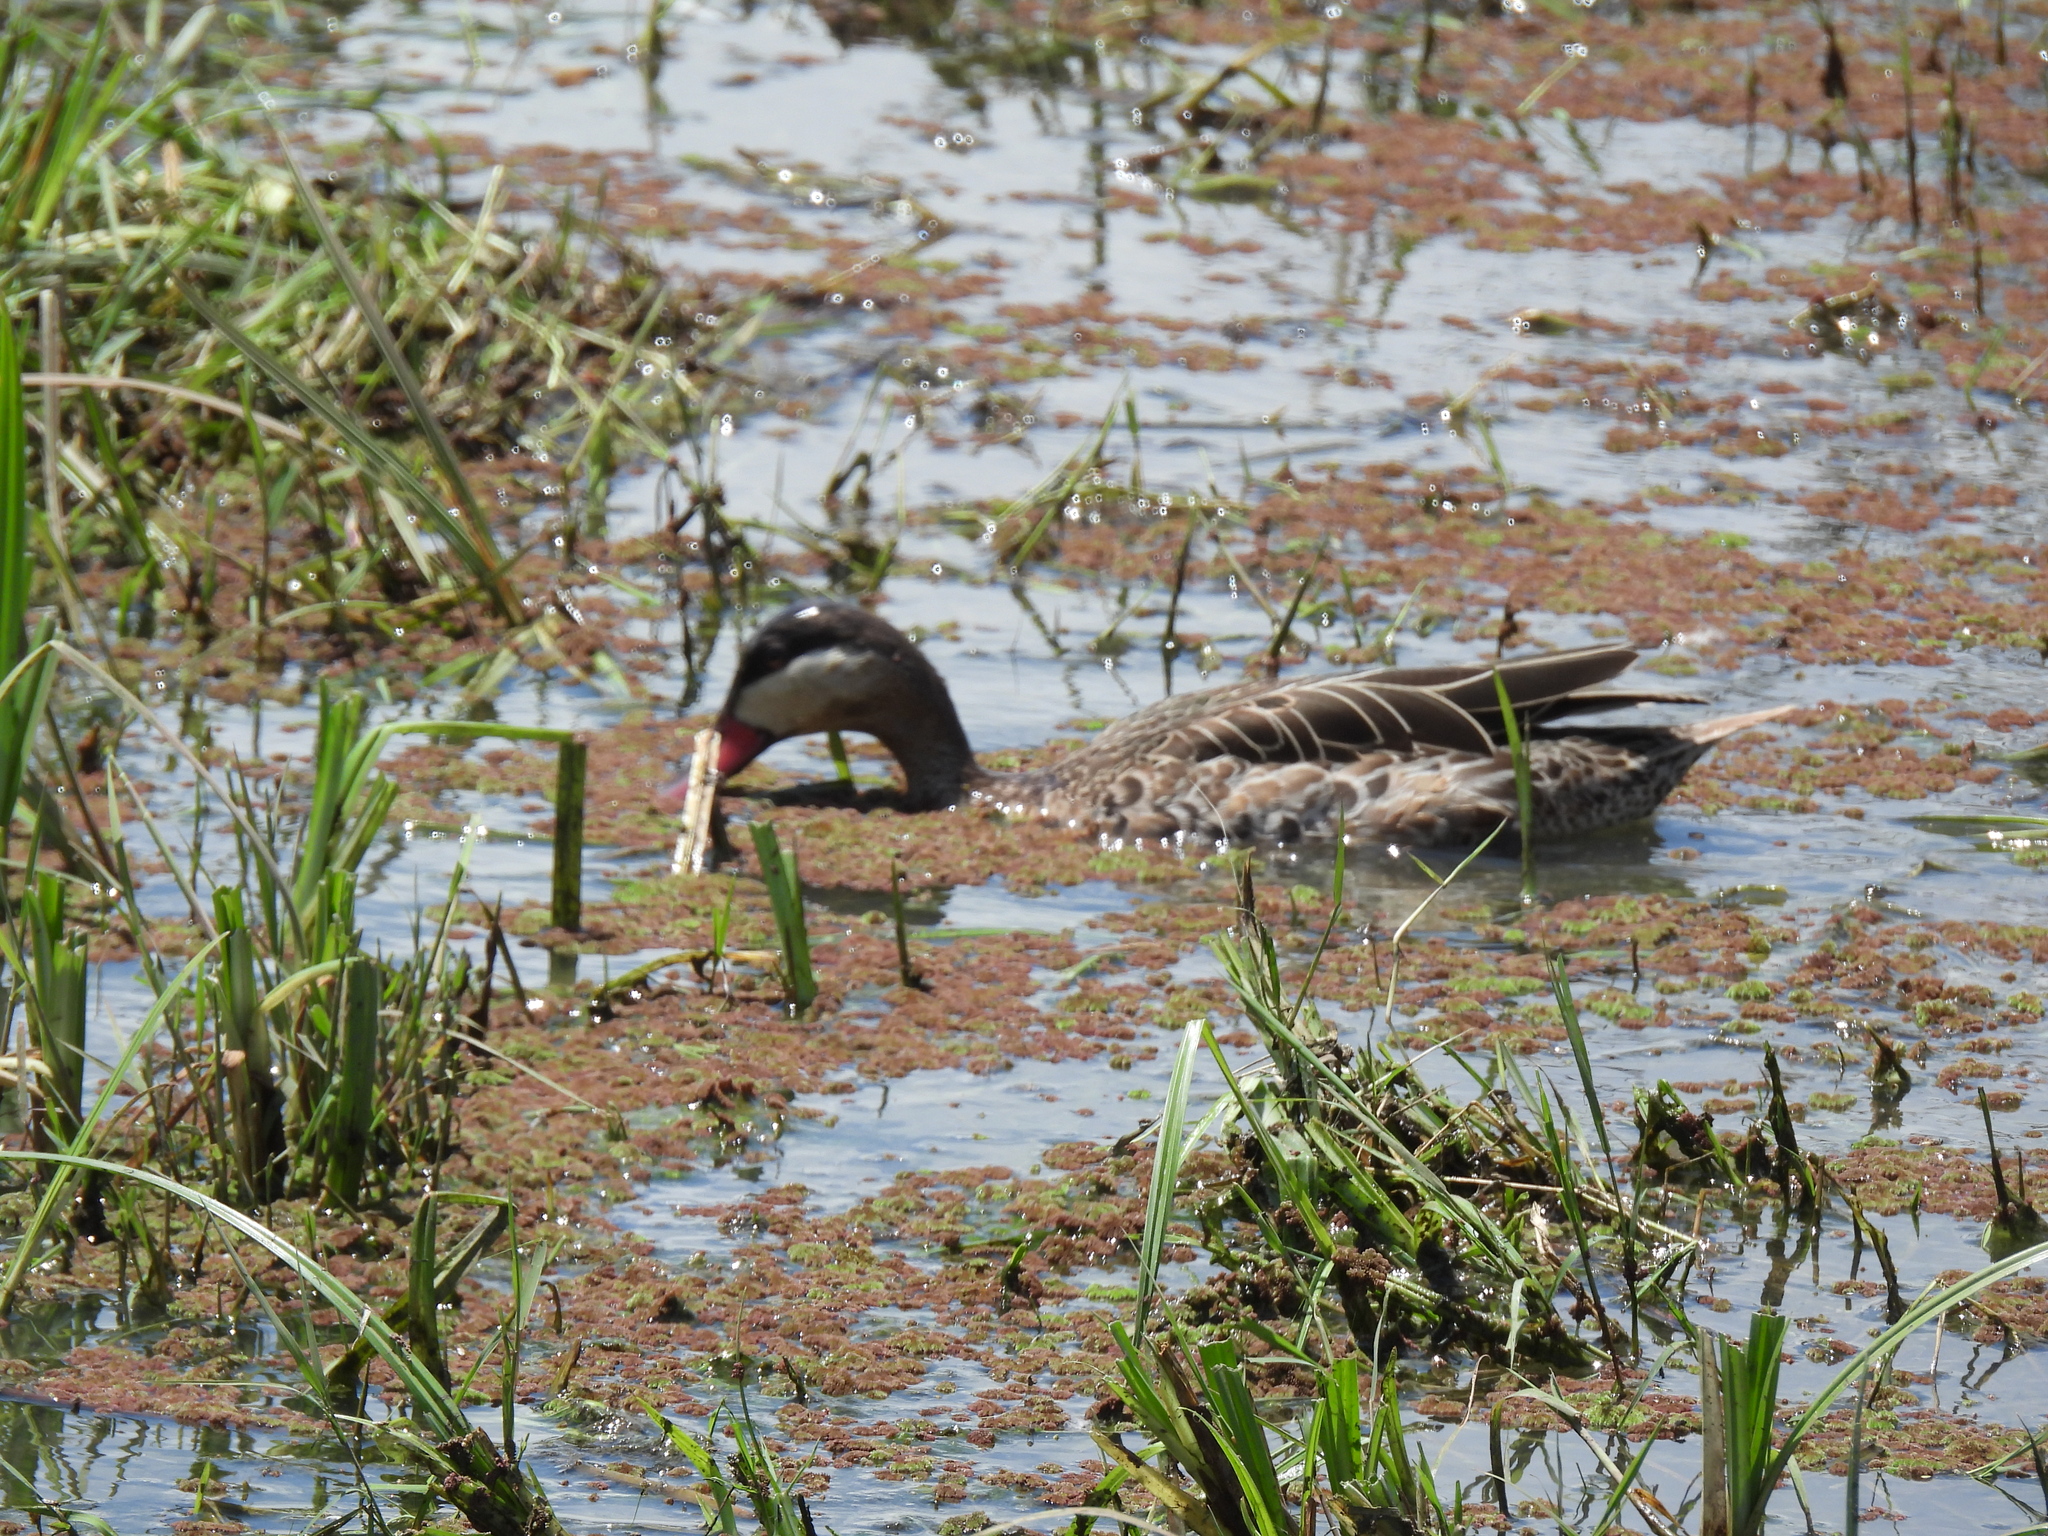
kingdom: Animalia
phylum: Chordata
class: Aves
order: Anseriformes
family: Anatidae
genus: Anas
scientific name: Anas erythrorhyncha
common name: Red-billed teal
